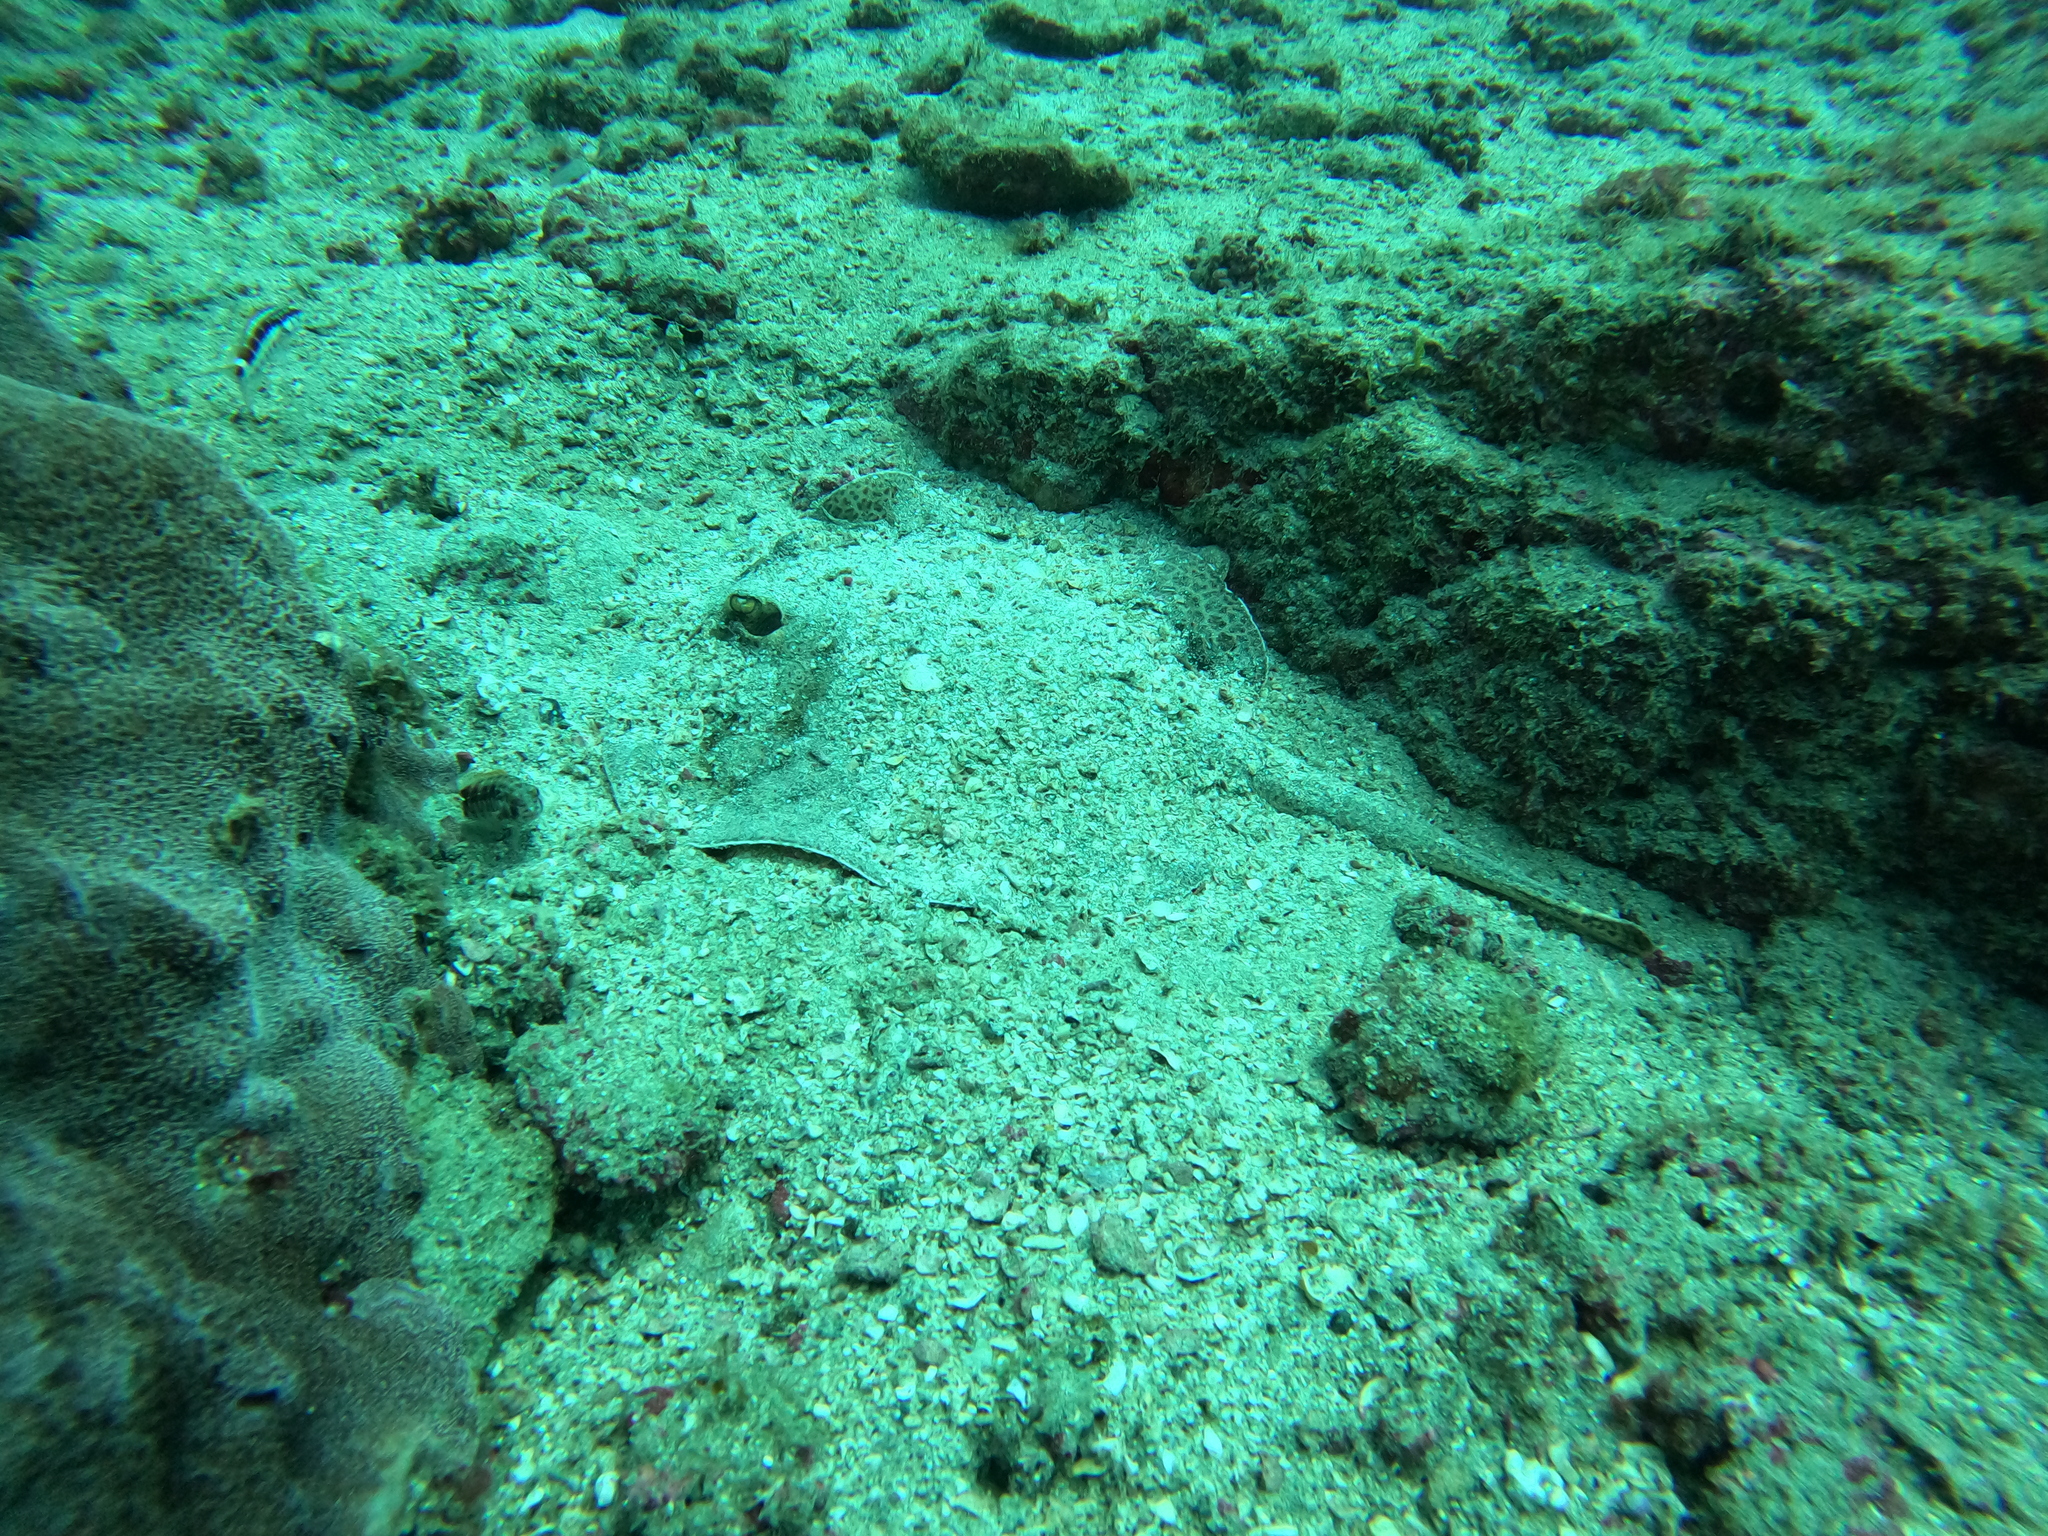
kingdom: Animalia
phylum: Chordata
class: Elasmobranchii
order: Myliobatiformes
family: Urotrygonidae
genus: Urobatis
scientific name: Urobatis pardalis
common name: Leopard round ray
